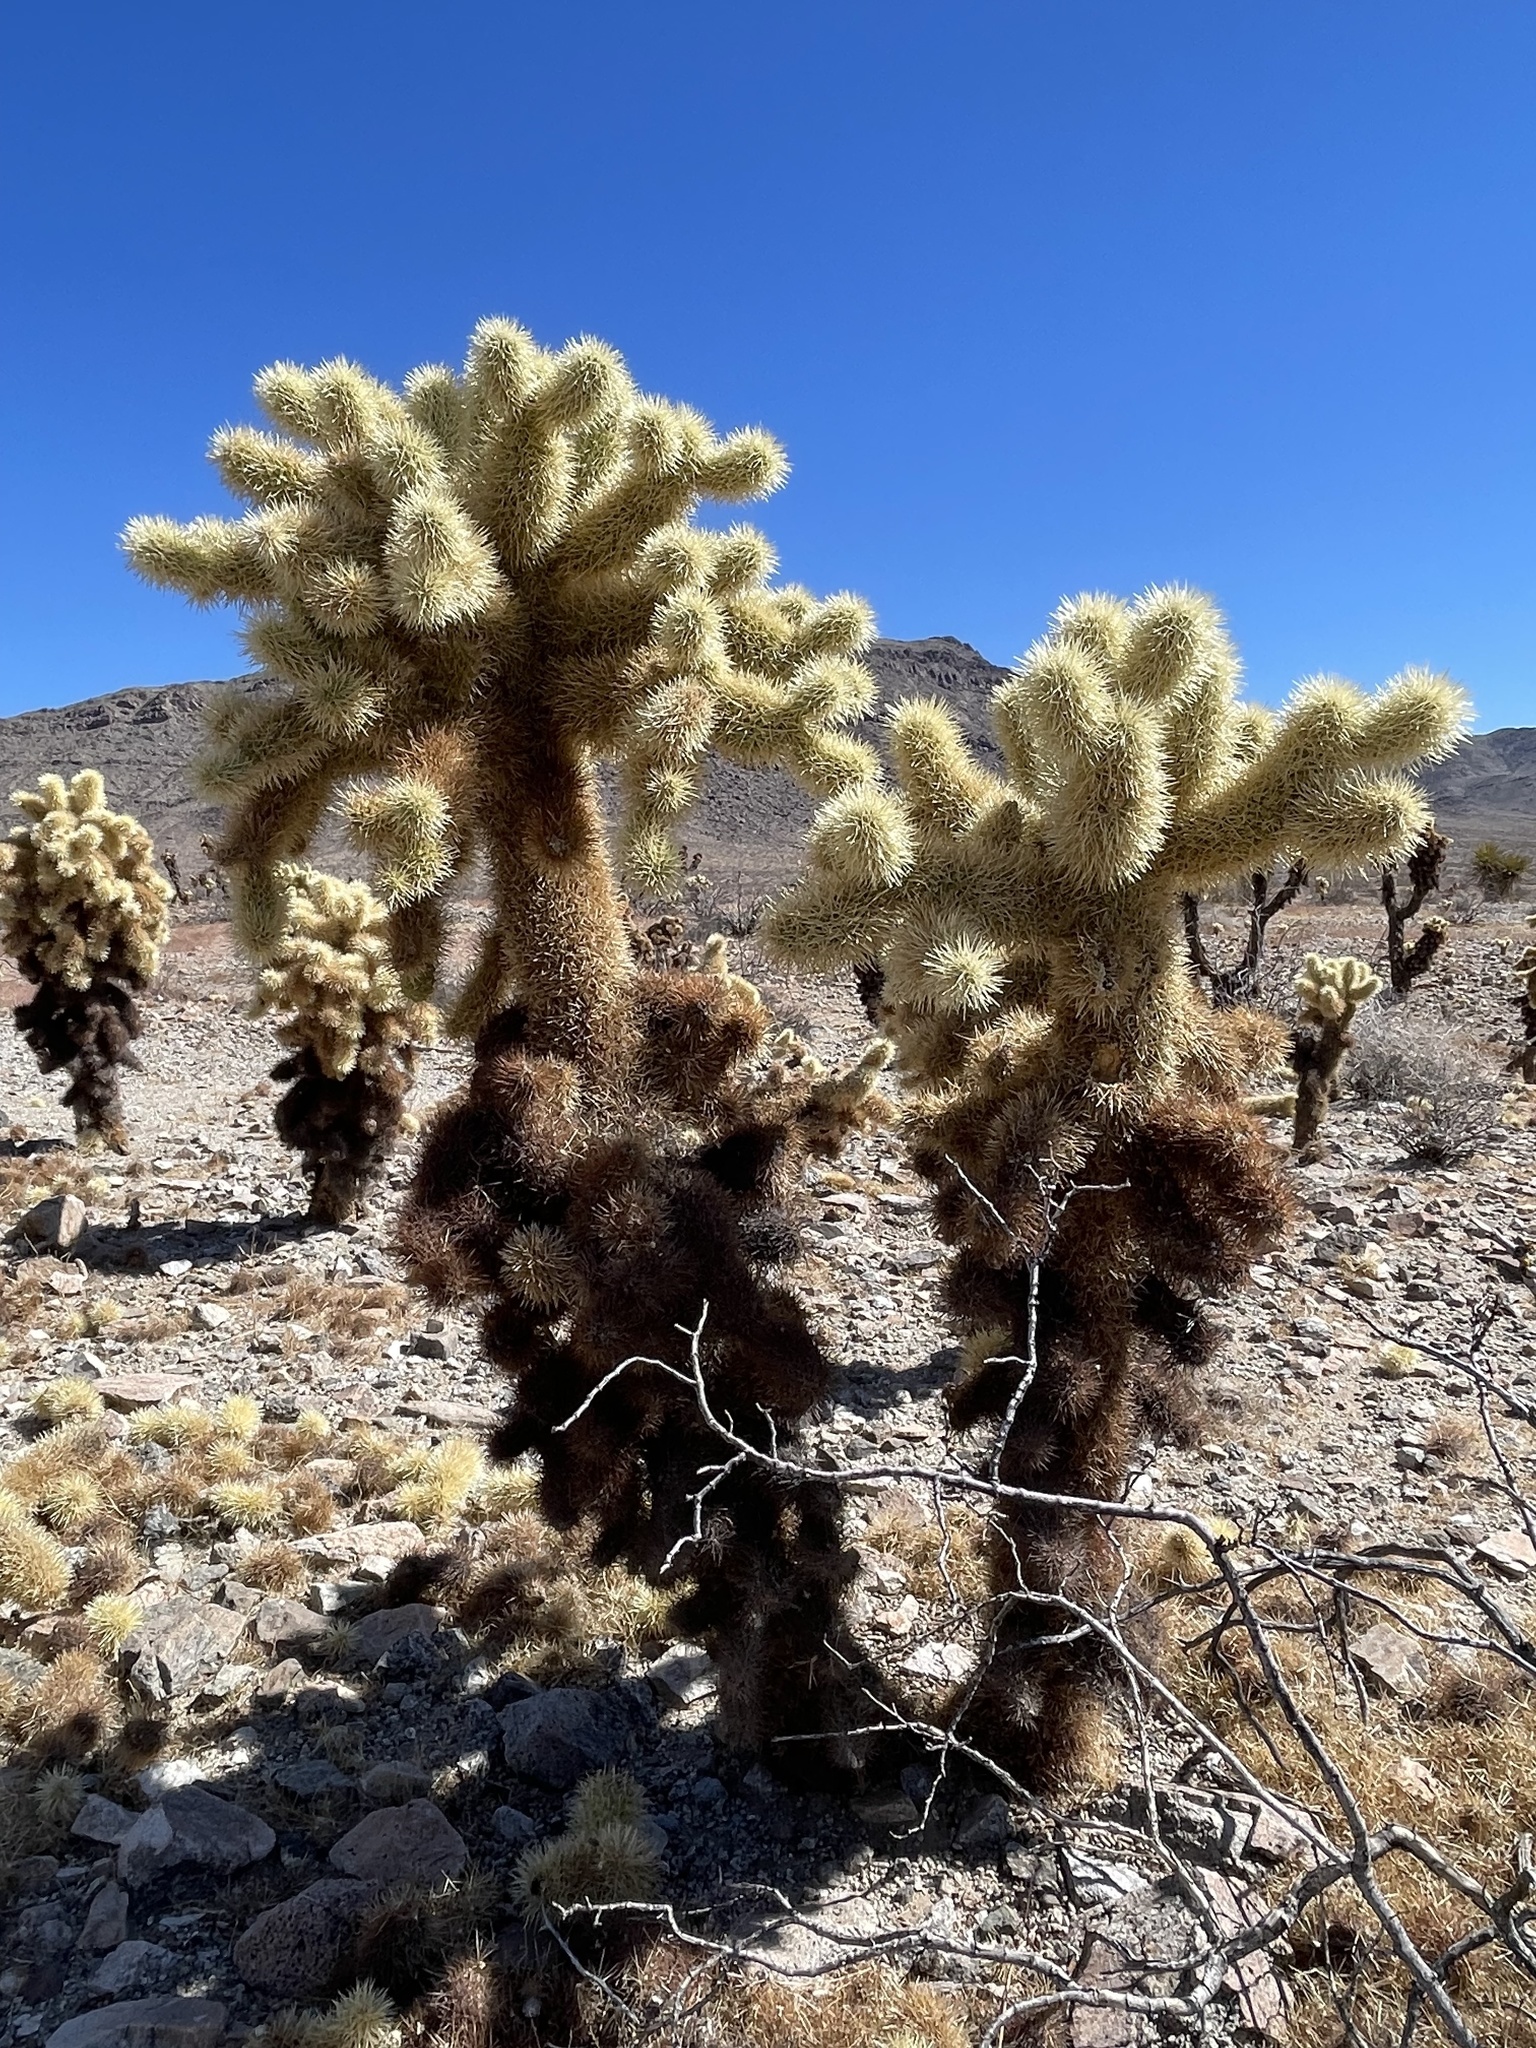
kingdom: Plantae
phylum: Tracheophyta
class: Magnoliopsida
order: Caryophyllales
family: Cactaceae
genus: Cylindropuntia
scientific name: Cylindropuntia fosbergii
